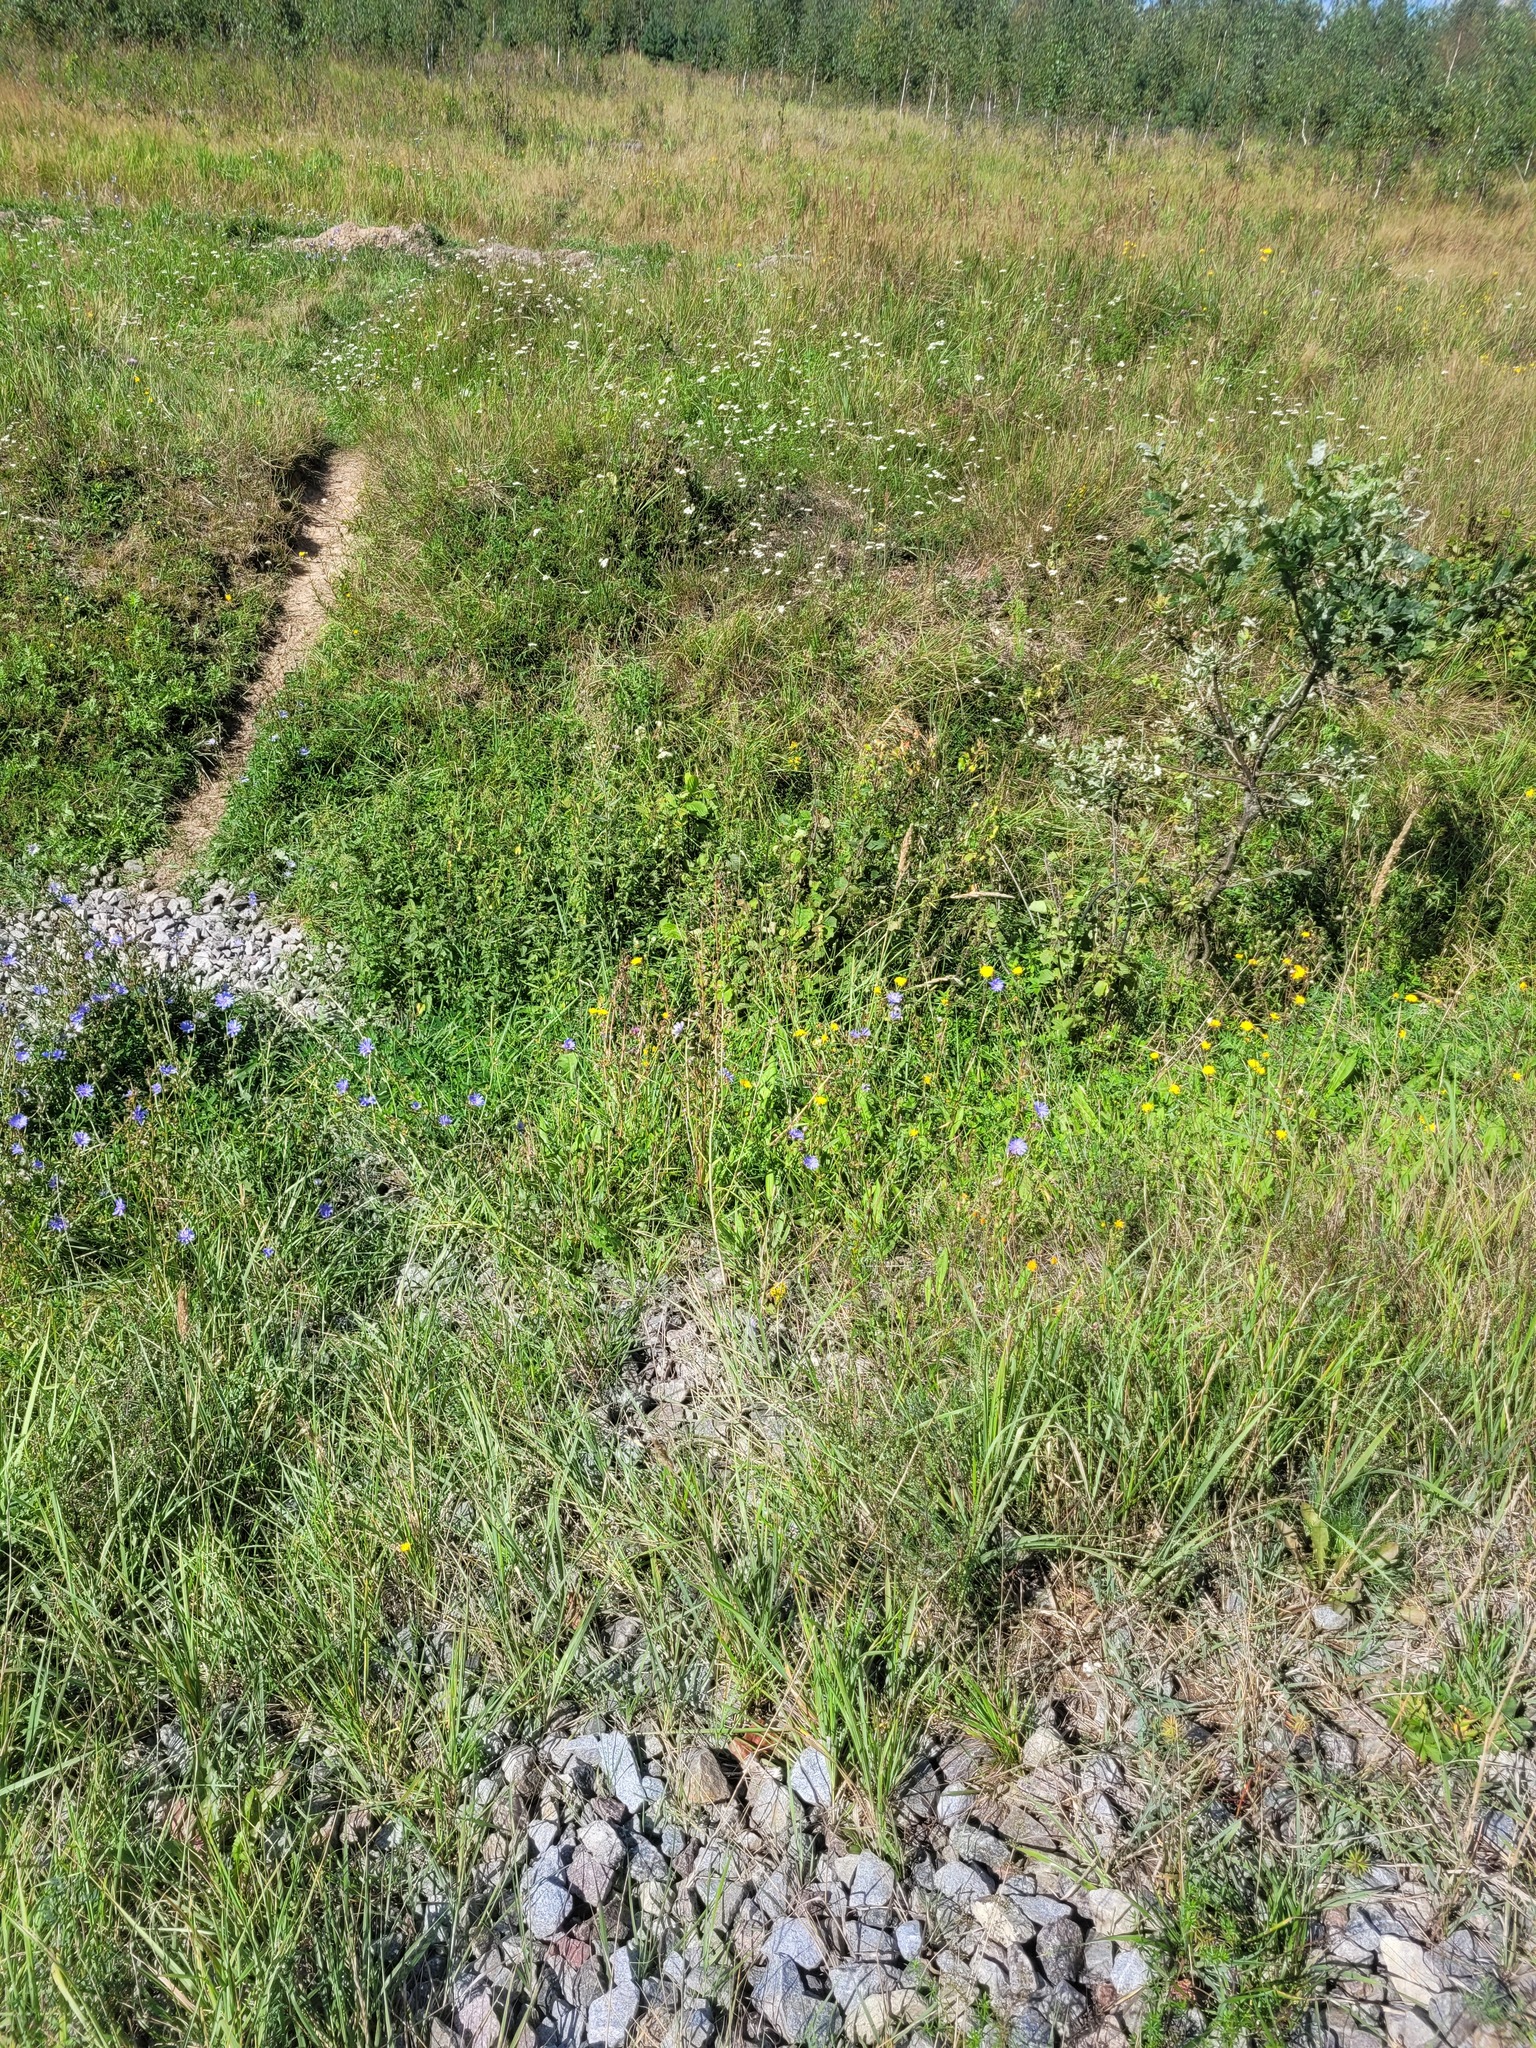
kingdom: Plantae
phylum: Tracheophyta
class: Magnoliopsida
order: Asterales
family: Asteraceae
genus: Cichorium
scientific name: Cichorium intybus
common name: Chicory
